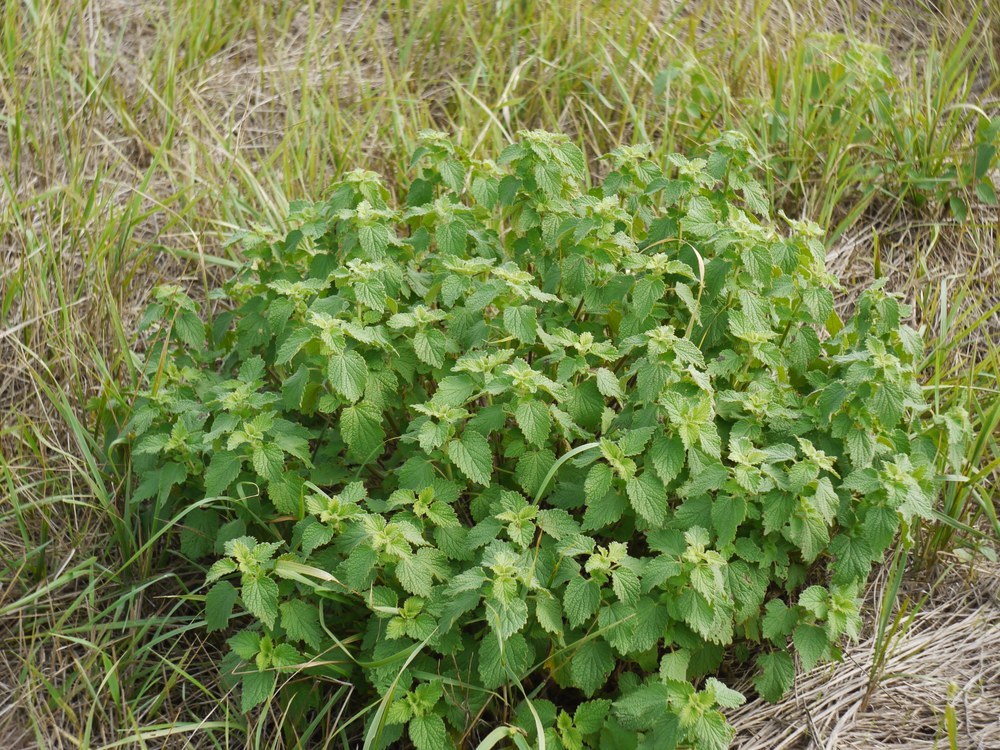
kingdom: Plantae
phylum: Tracheophyta
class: Magnoliopsida
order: Lamiales
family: Lamiaceae
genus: Ballota
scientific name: Ballota nigra
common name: Black horehound
